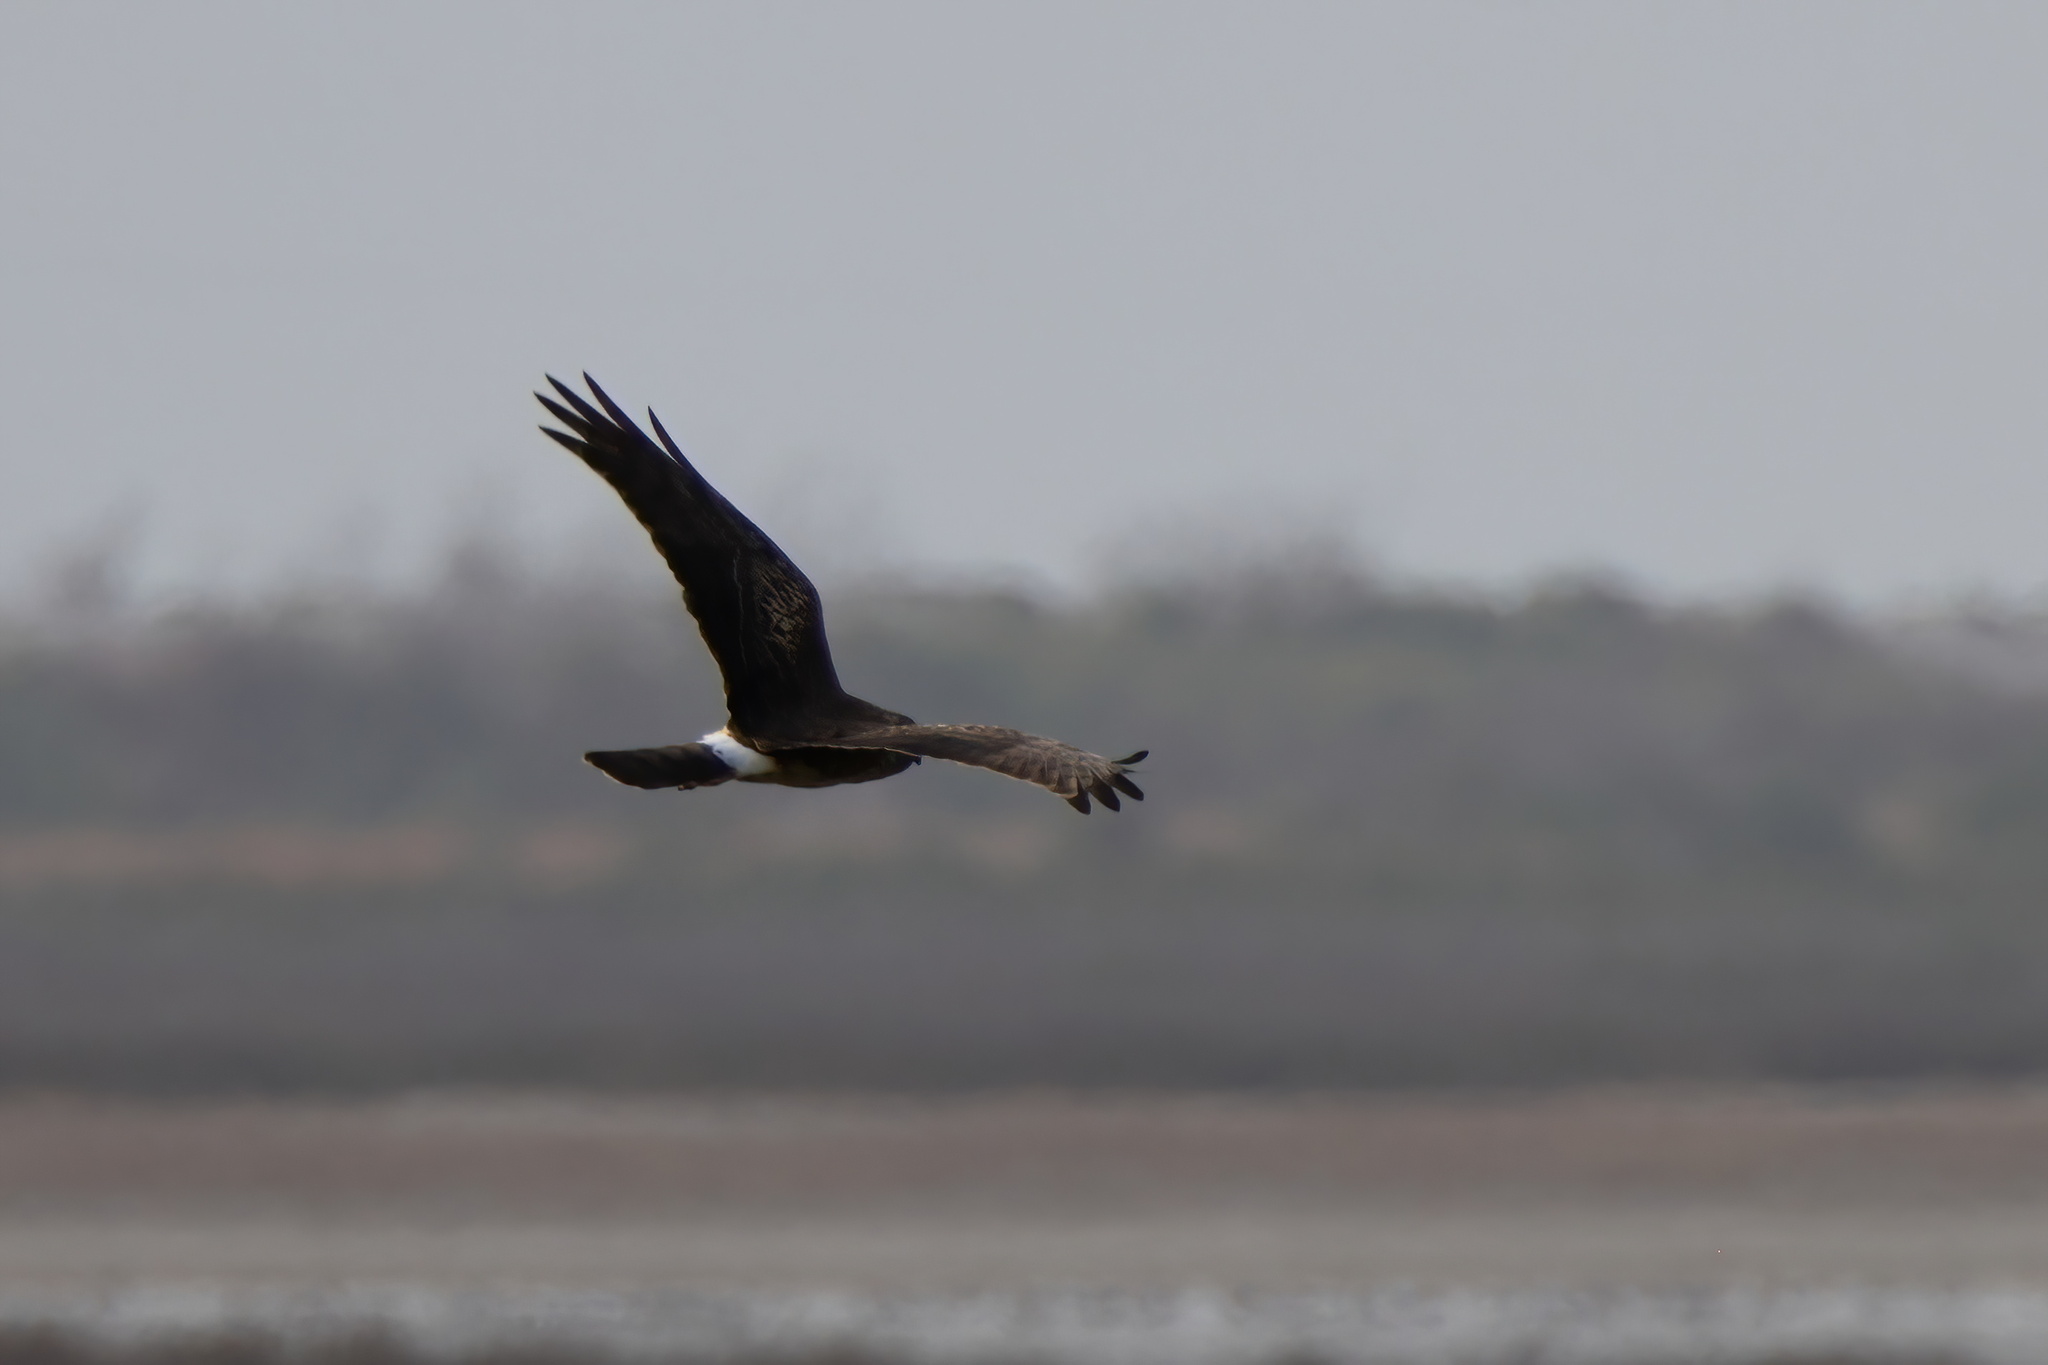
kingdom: Animalia
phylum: Chordata
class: Aves
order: Accipitriformes
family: Accipitridae
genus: Circus
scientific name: Circus cyaneus
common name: Hen harrier
